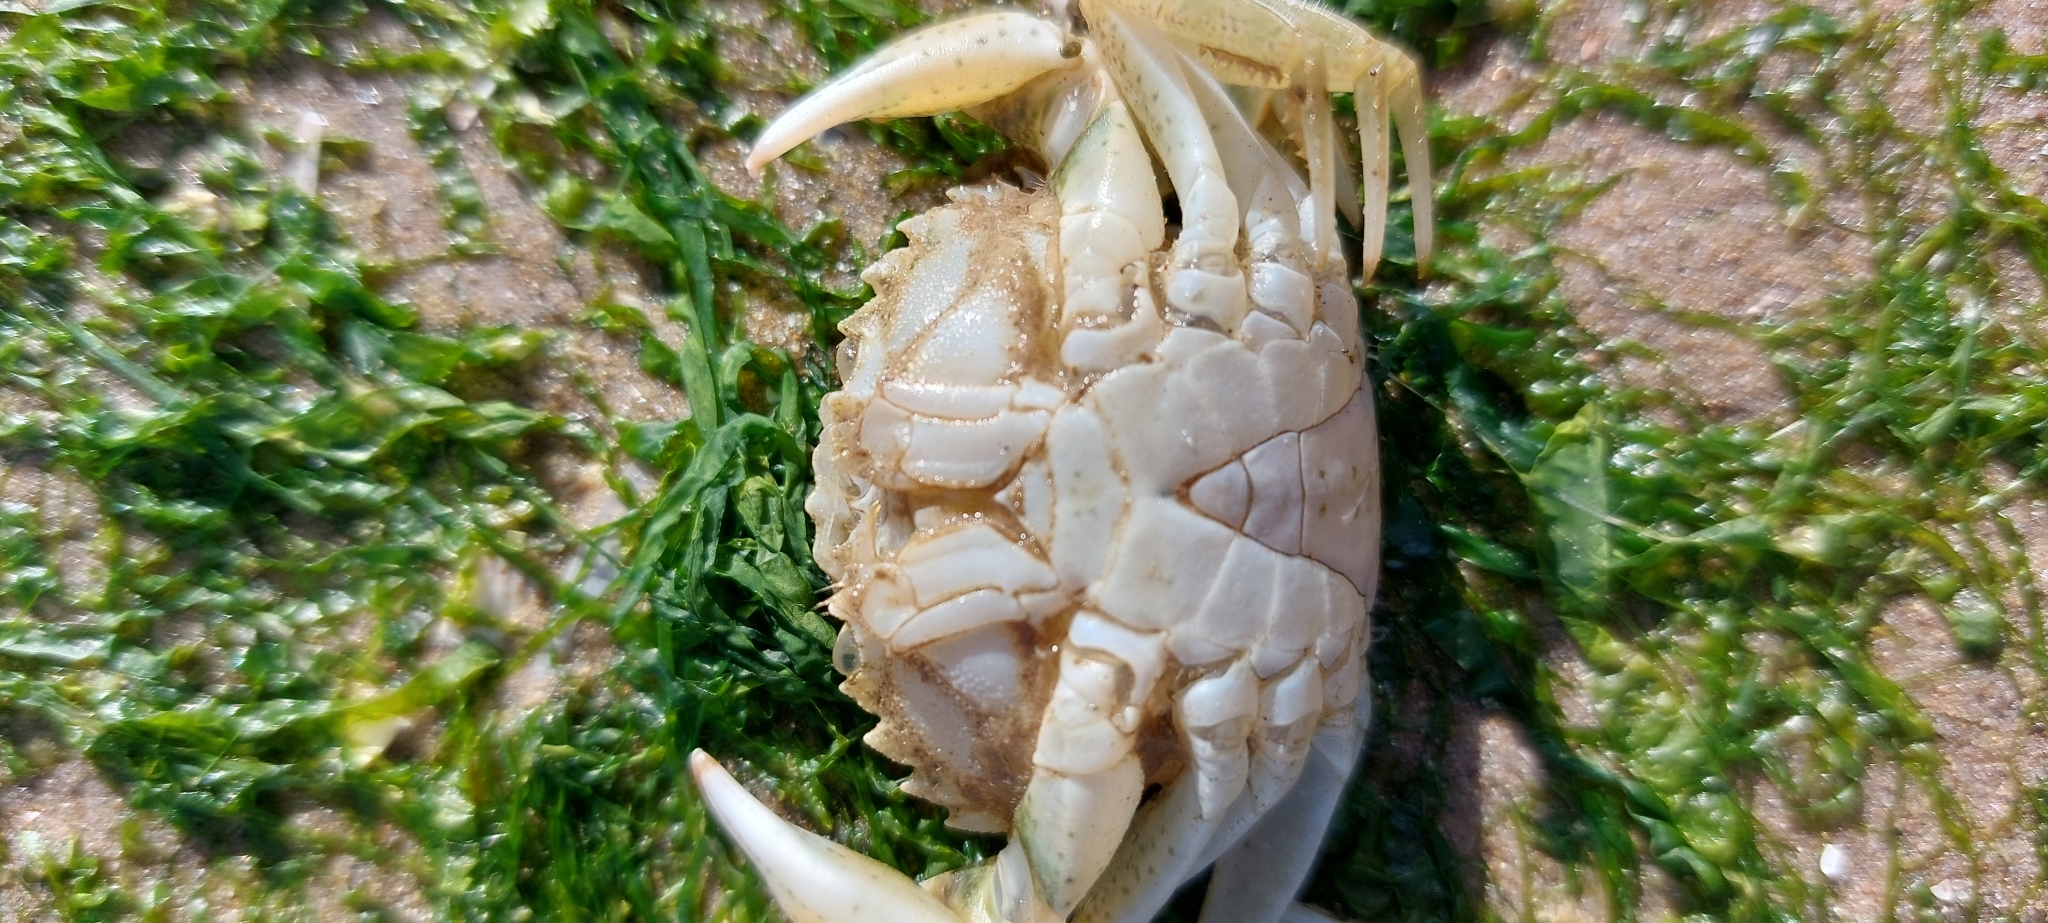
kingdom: Animalia
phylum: Arthropoda
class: Malacostraca
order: Decapoda
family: Carcinidae
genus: Carcinus
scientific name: Carcinus maenas
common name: European green crab
